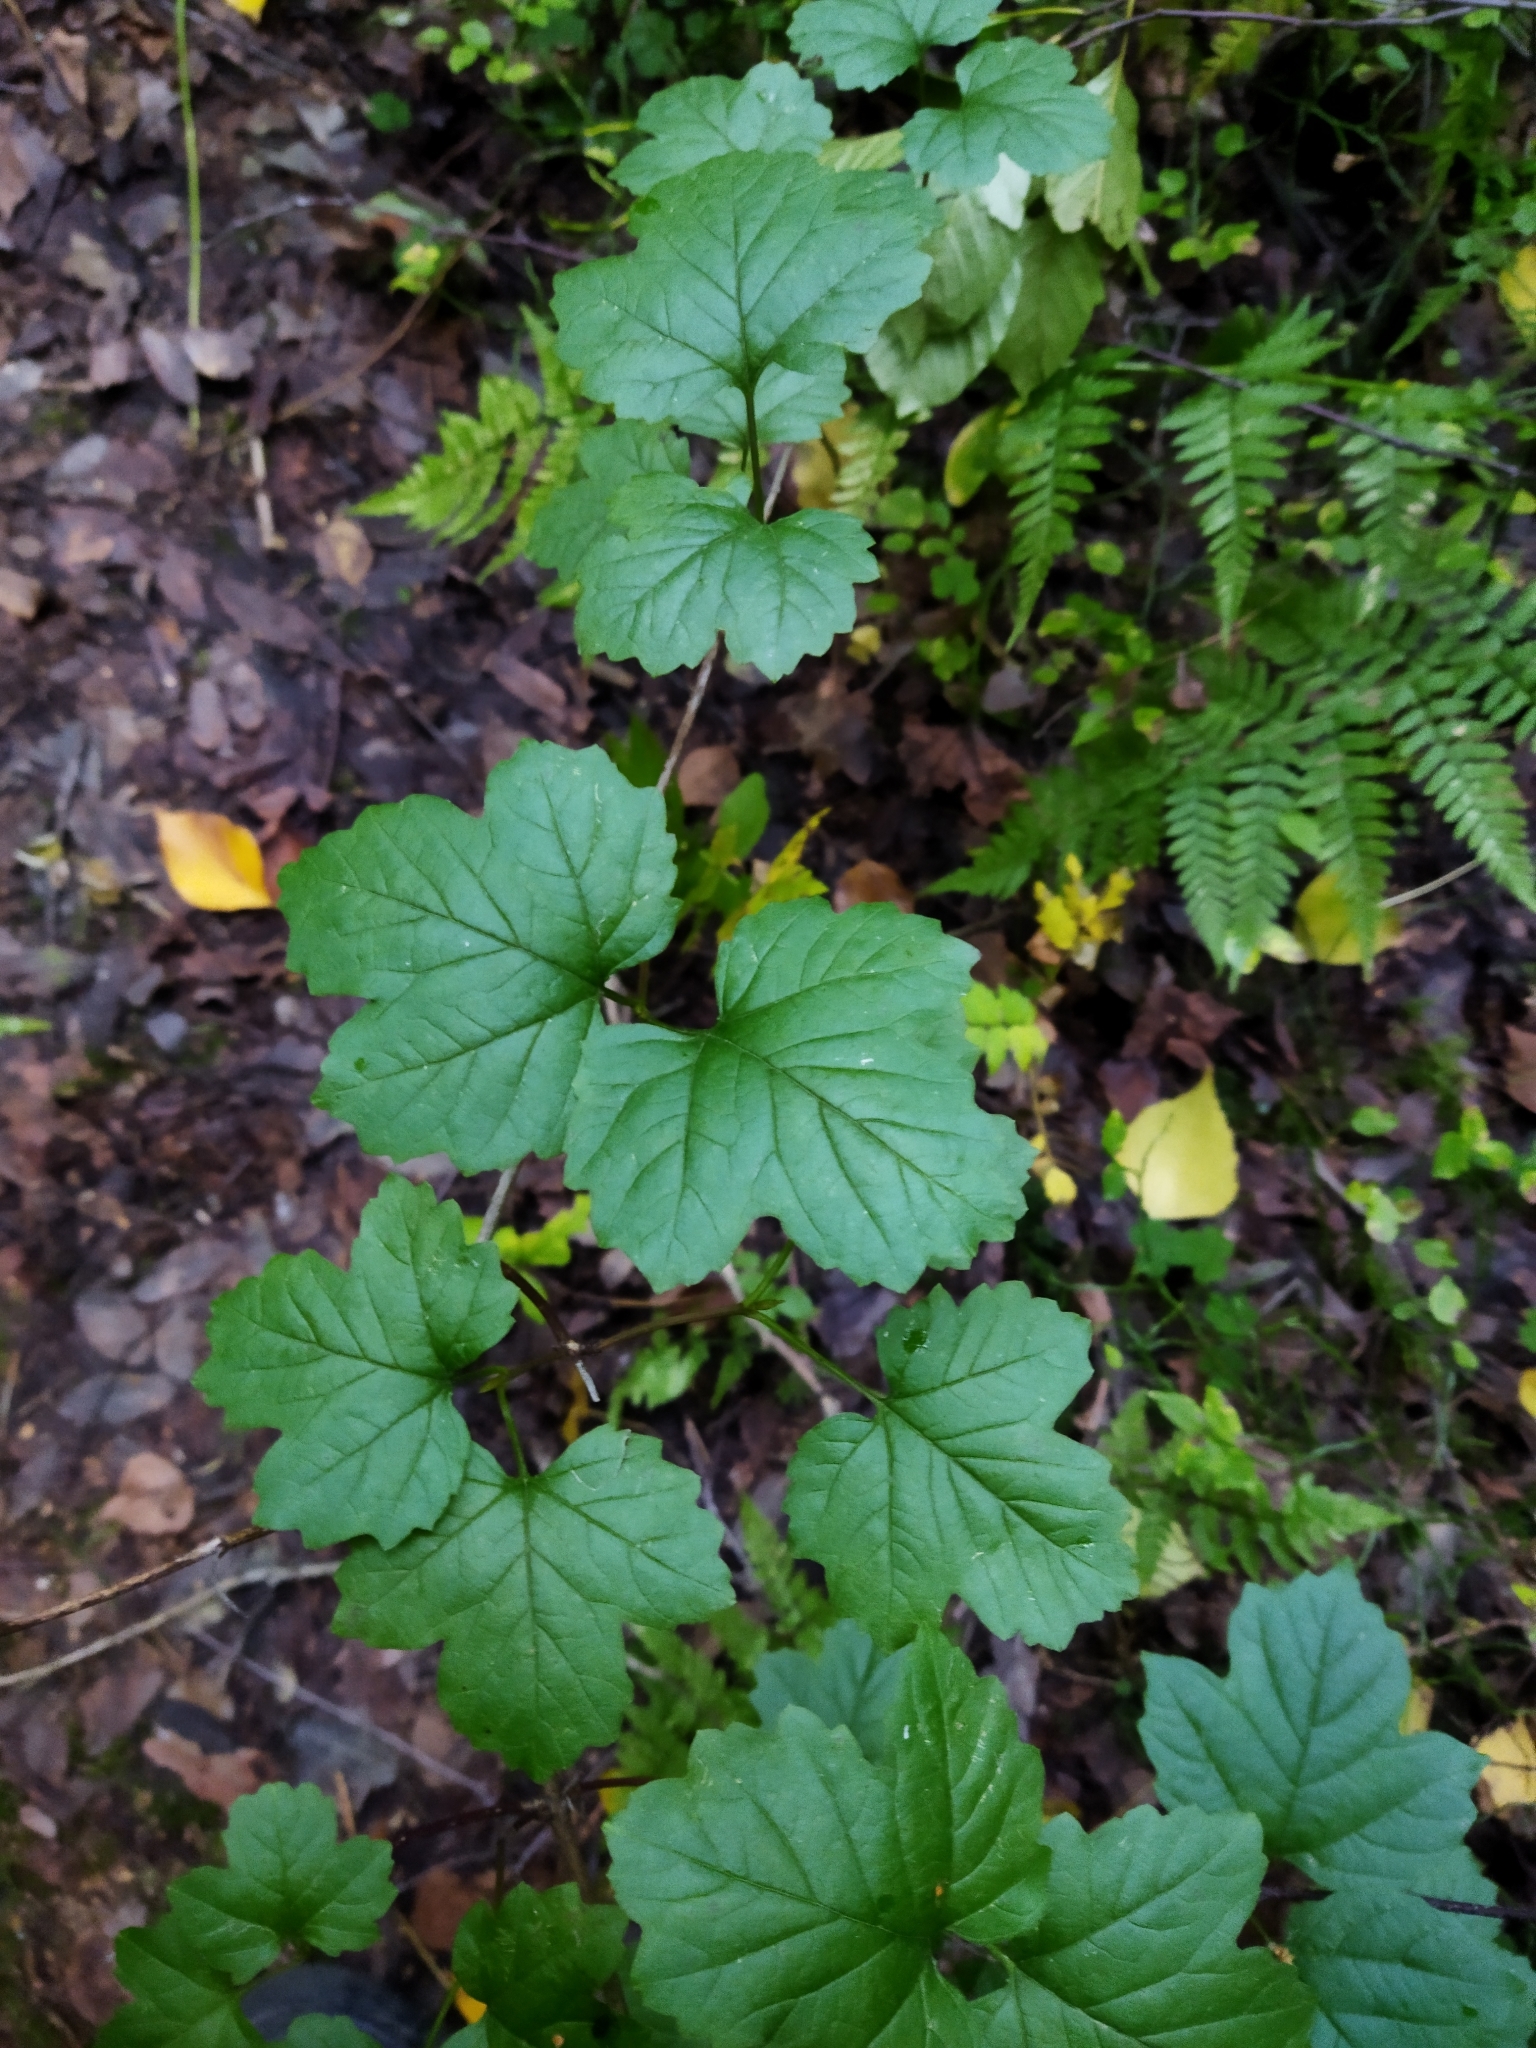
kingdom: Plantae
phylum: Tracheophyta
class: Magnoliopsida
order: Dipsacales
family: Viburnaceae
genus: Viburnum
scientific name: Viburnum opulus
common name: Guelder-rose
